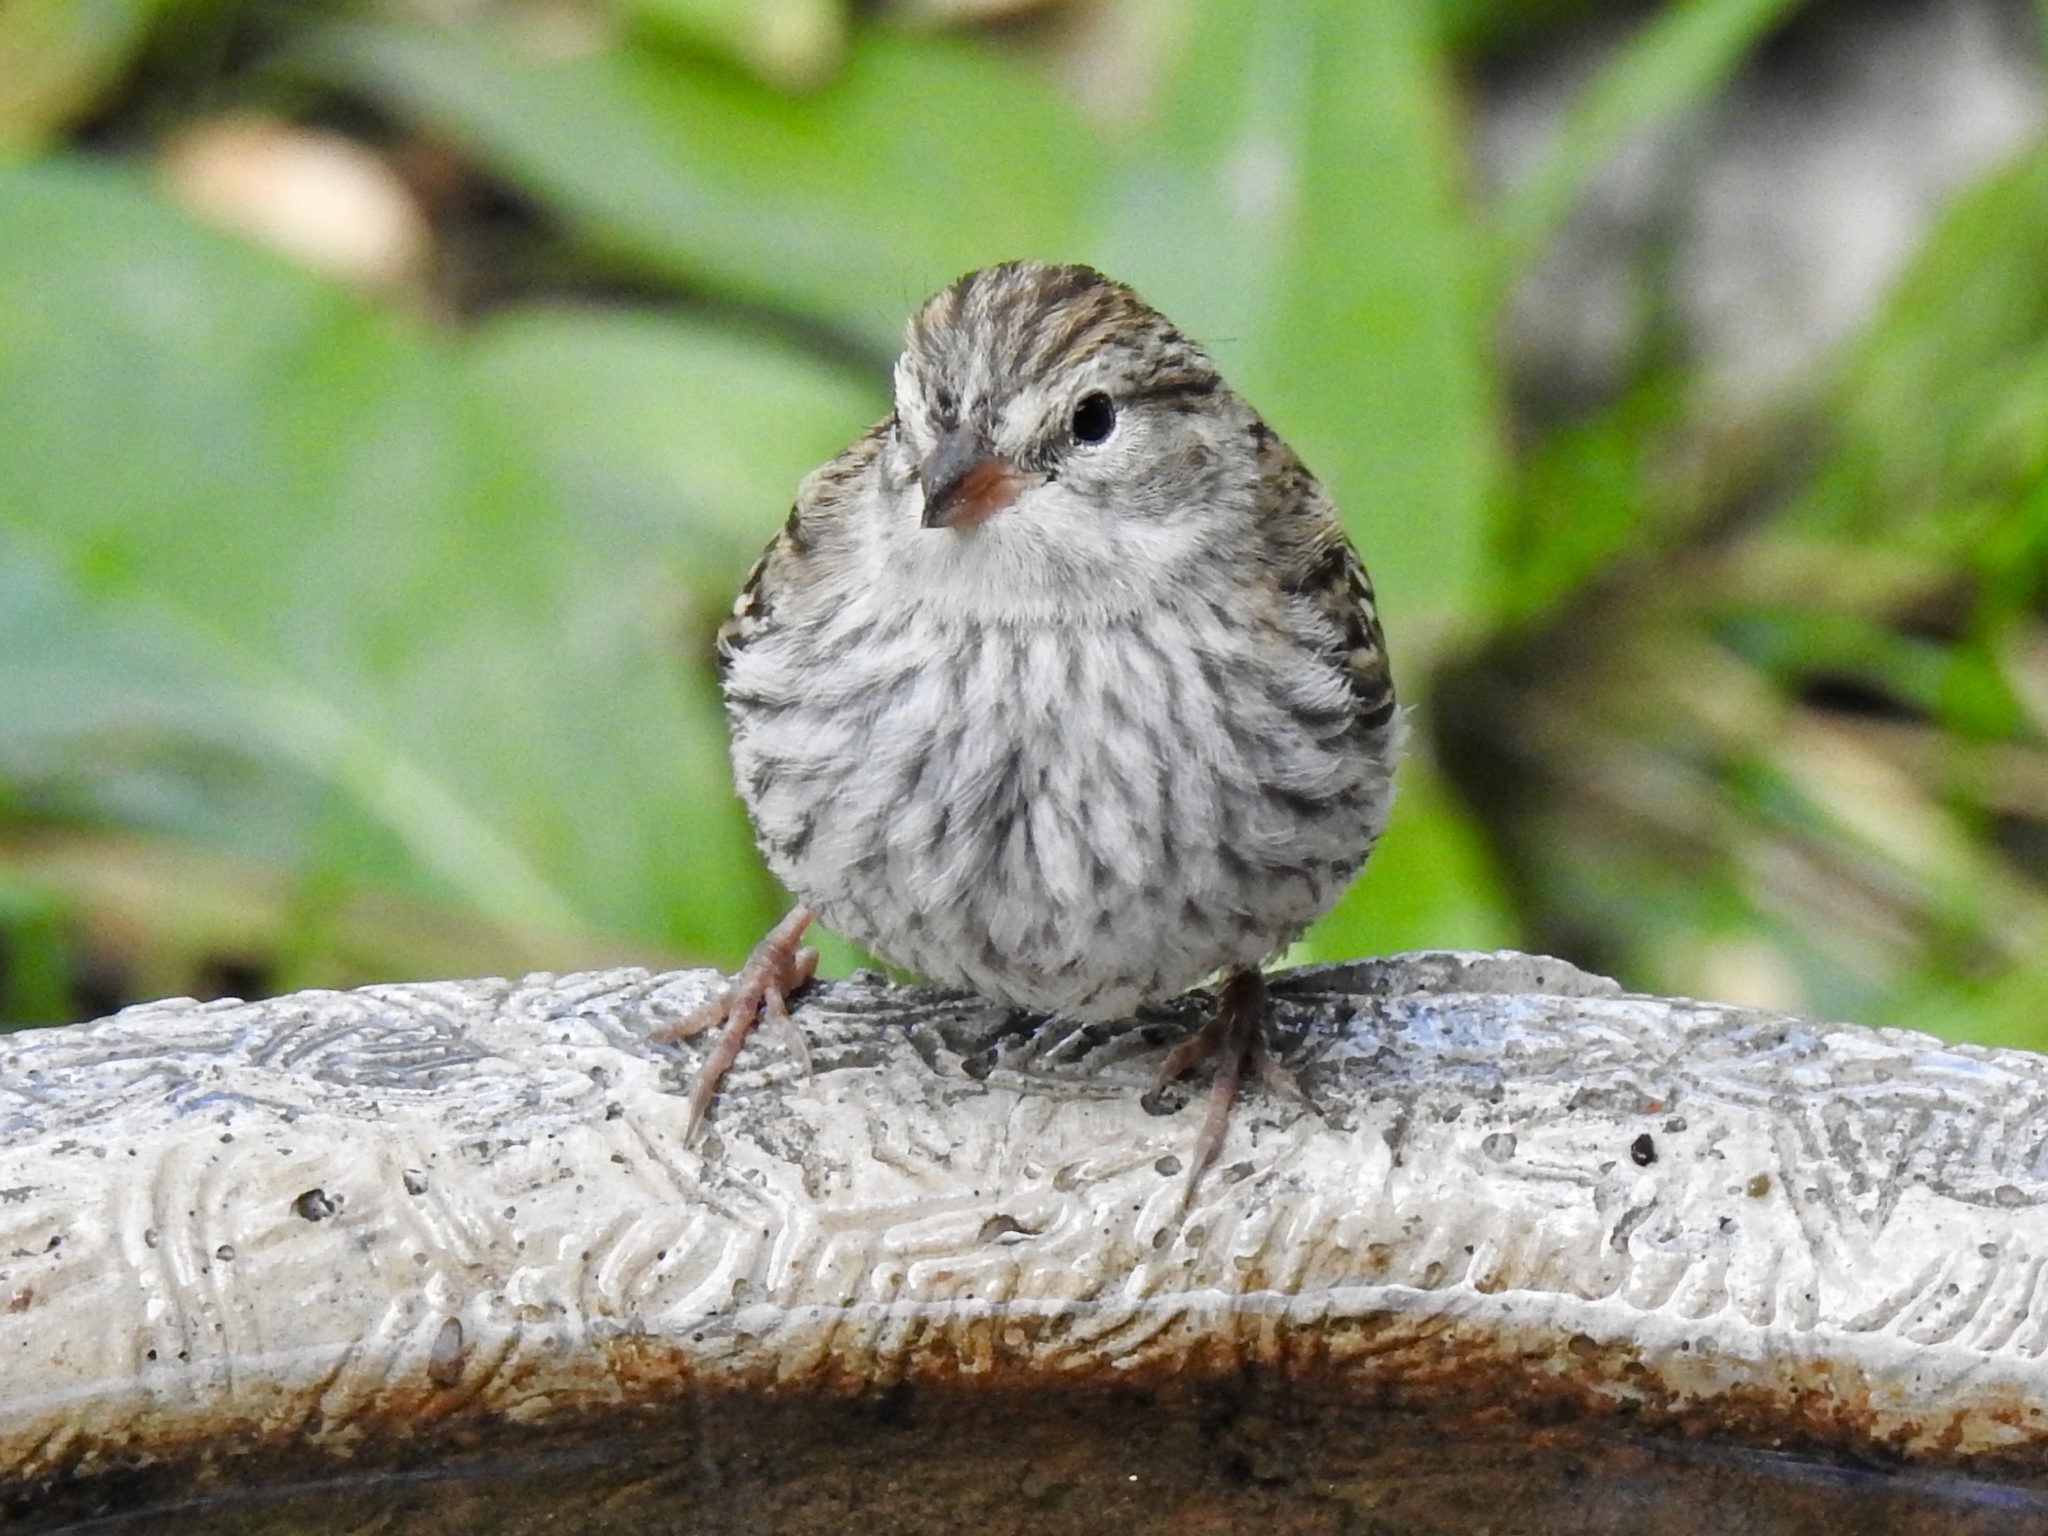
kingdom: Animalia
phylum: Chordata
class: Aves
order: Passeriformes
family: Passerellidae
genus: Spizella
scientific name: Spizella passerina
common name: Chipping sparrow
